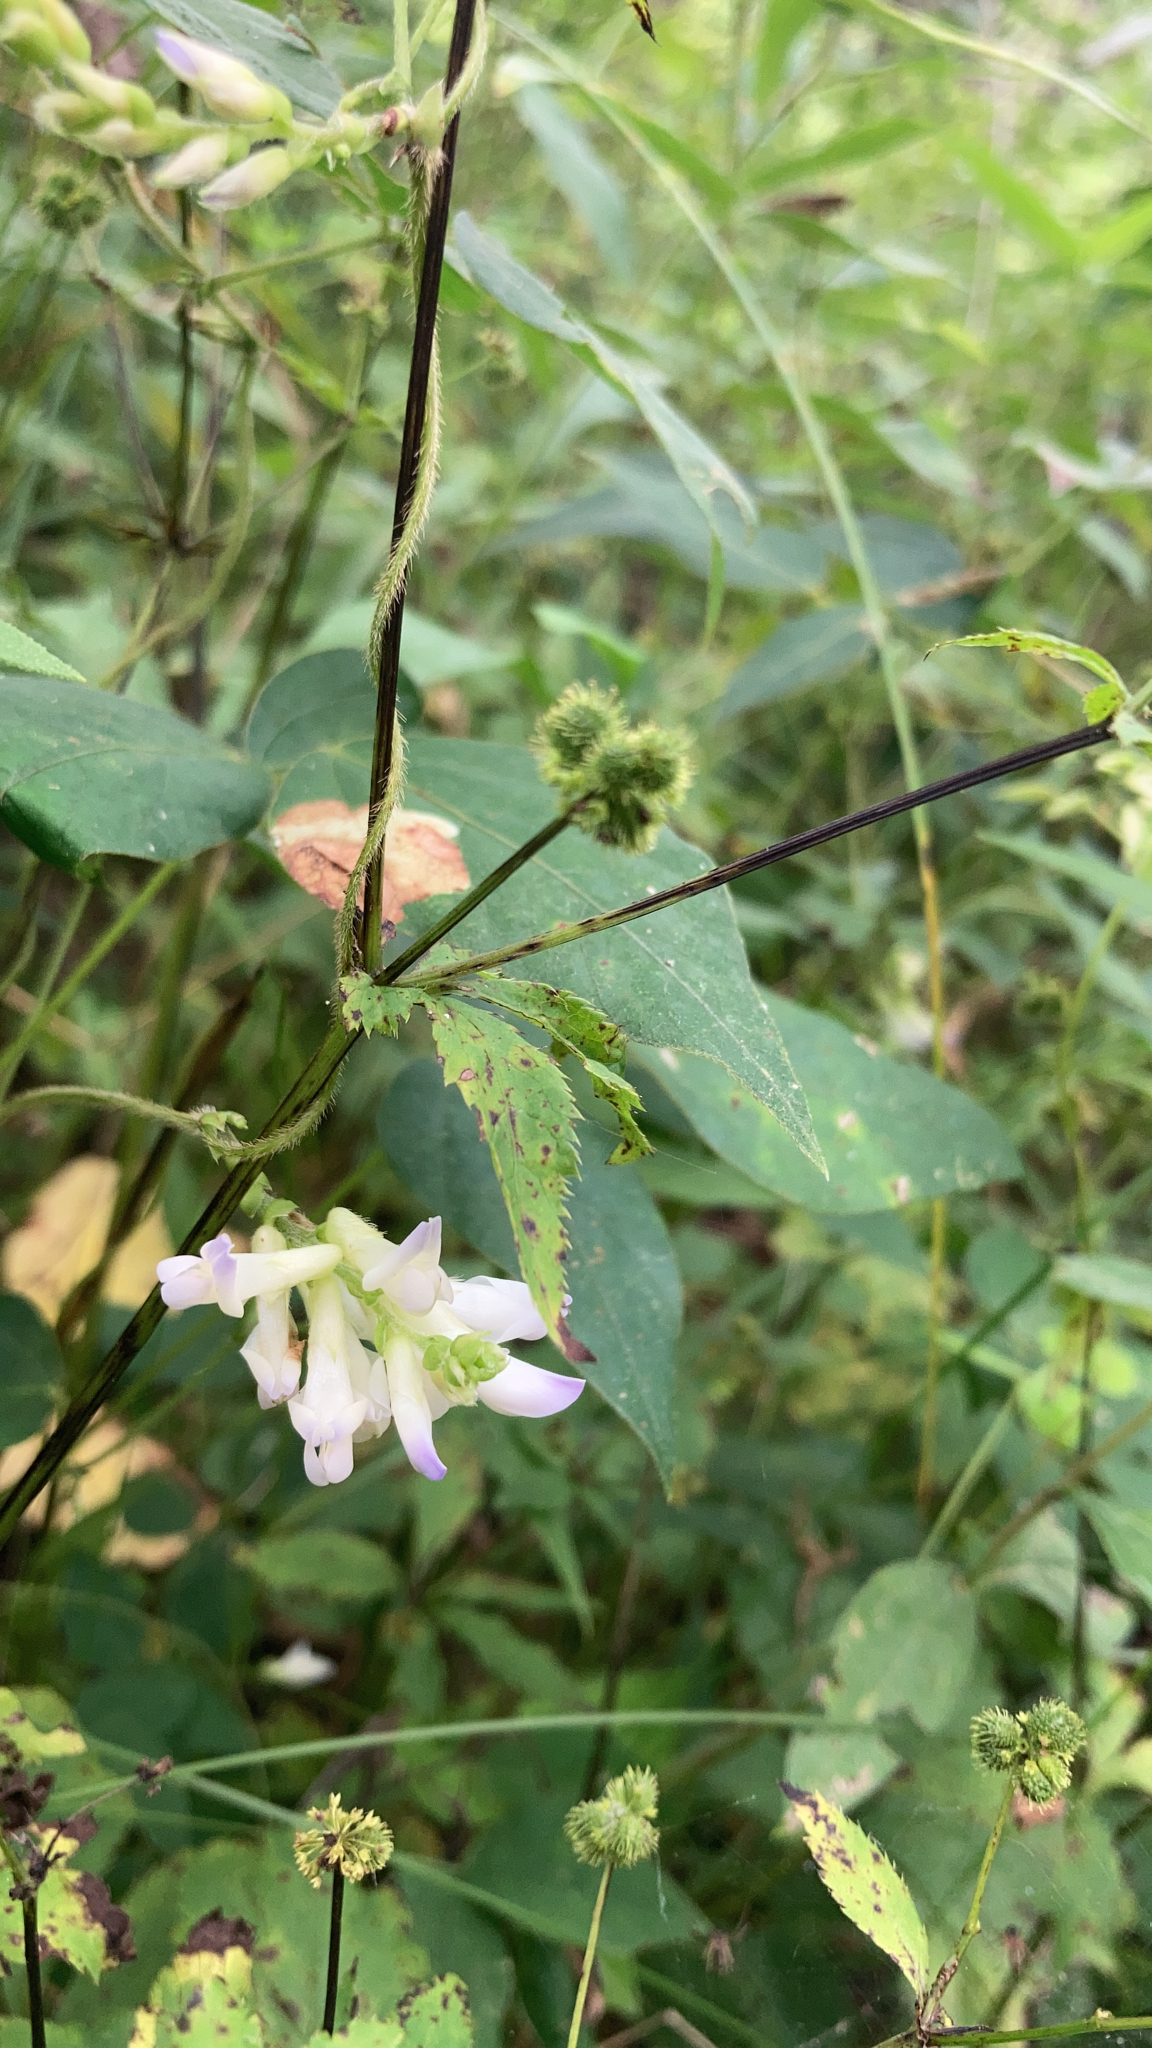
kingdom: Plantae
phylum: Tracheophyta
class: Magnoliopsida
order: Fabales
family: Fabaceae
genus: Amphicarpaea
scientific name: Amphicarpaea bracteata
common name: American hog peanut
